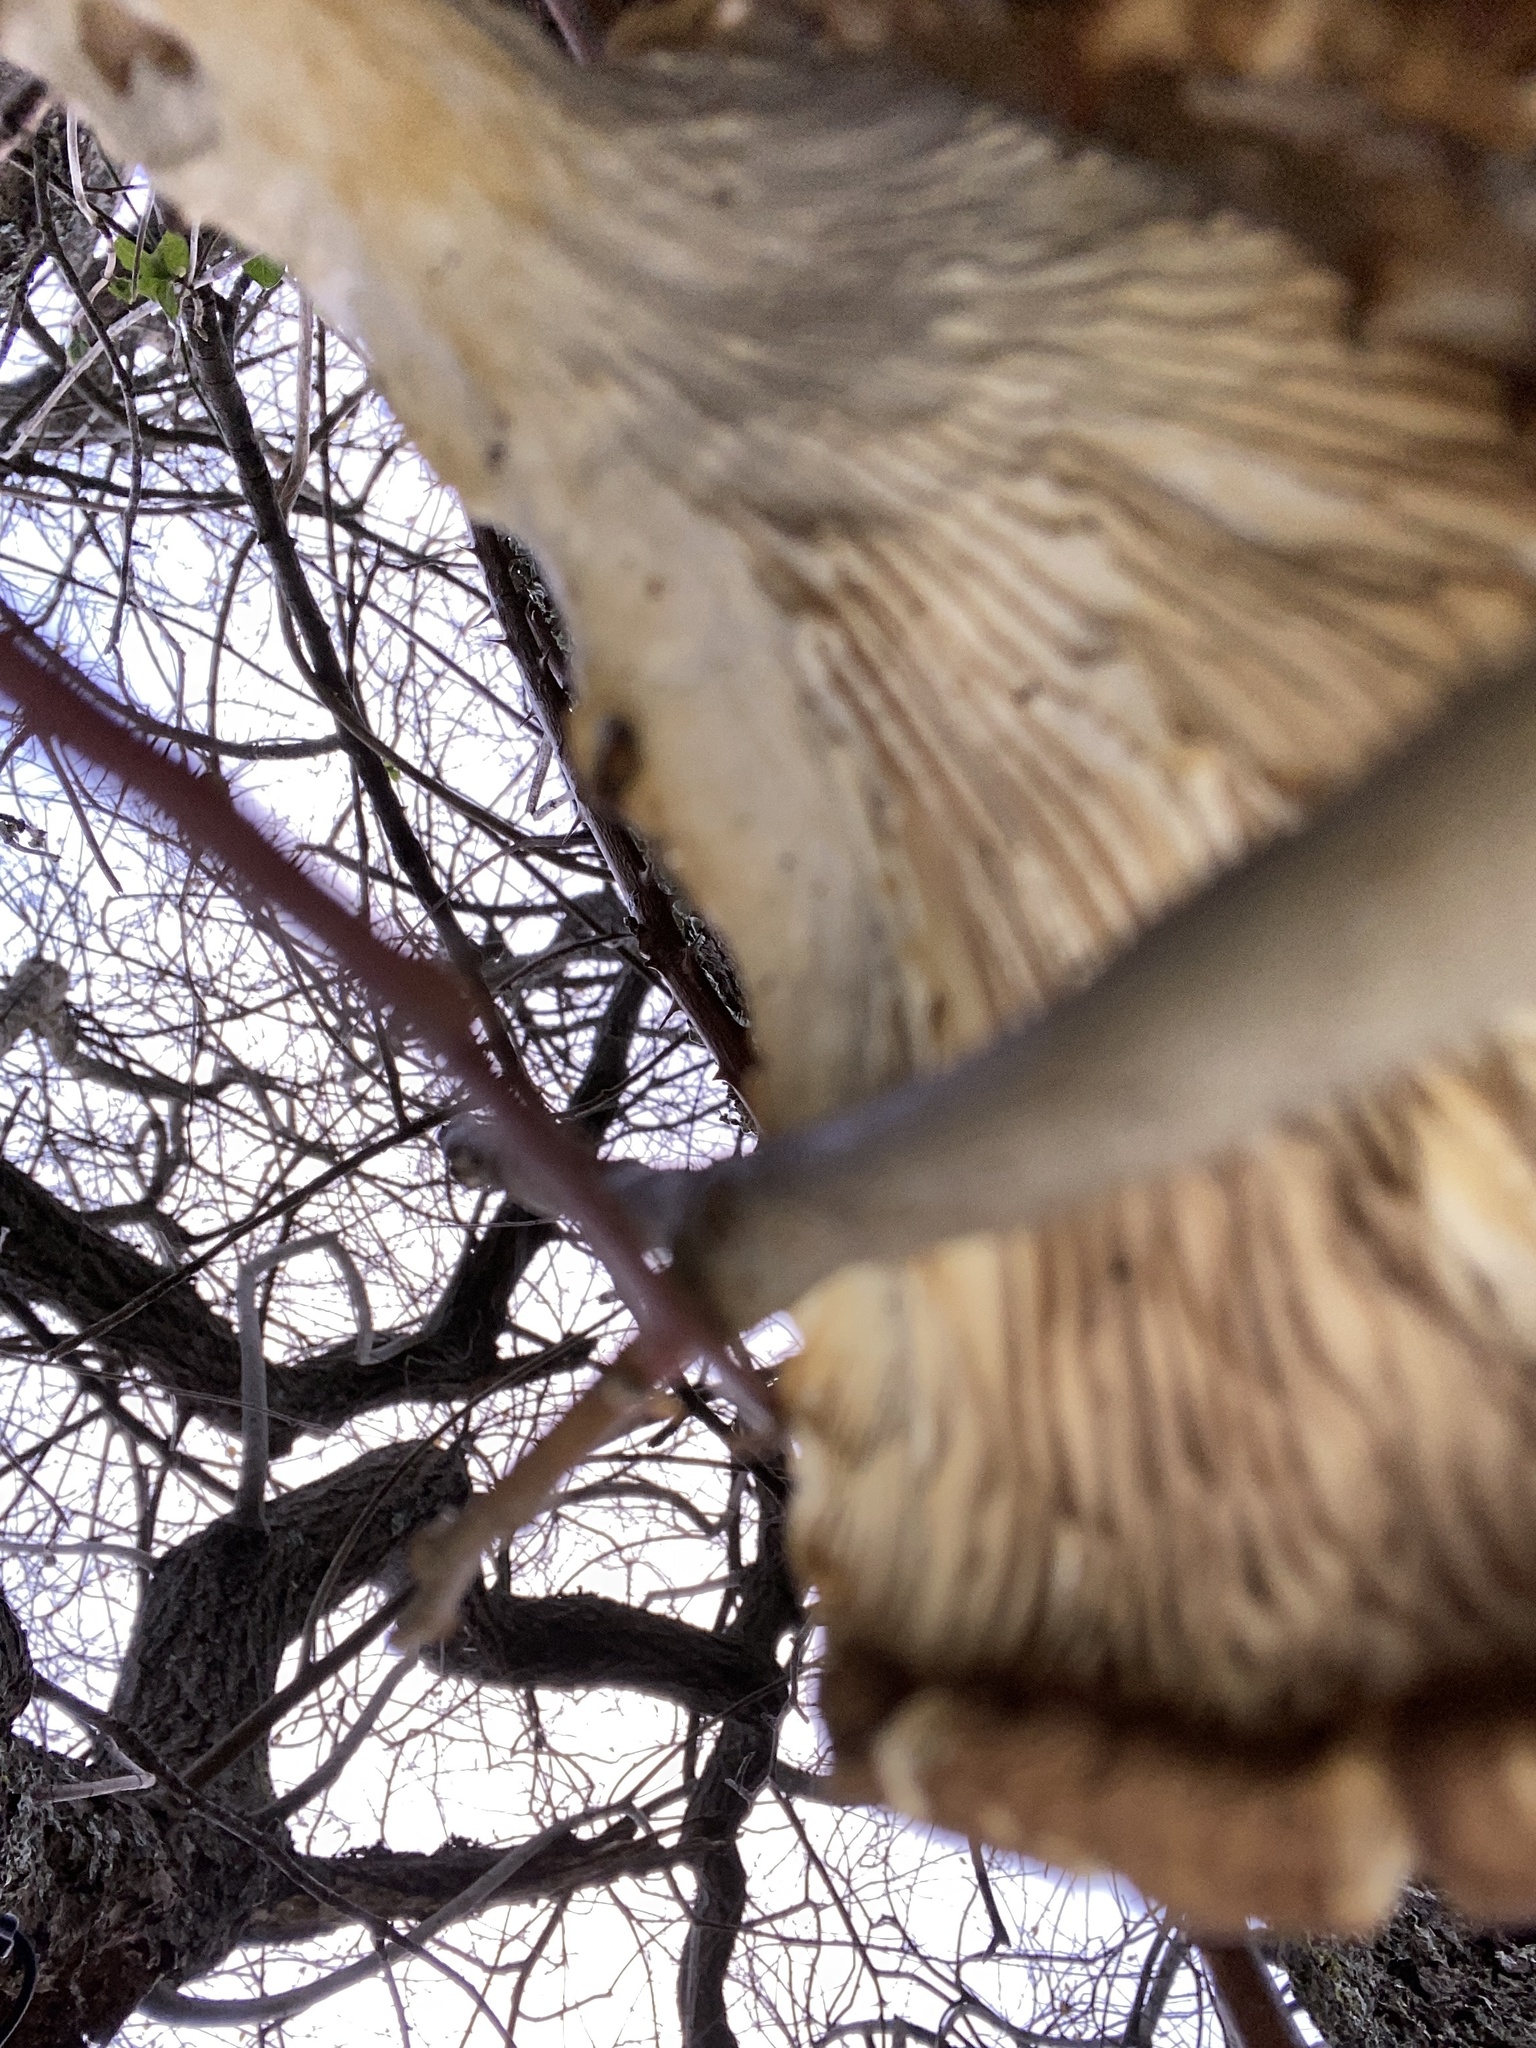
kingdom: Fungi
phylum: Basidiomycota
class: Agaricomycetes
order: Agaricales
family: Pleurotaceae
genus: Pleurotus
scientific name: Pleurotus ostreatus
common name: Oyster mushroom
